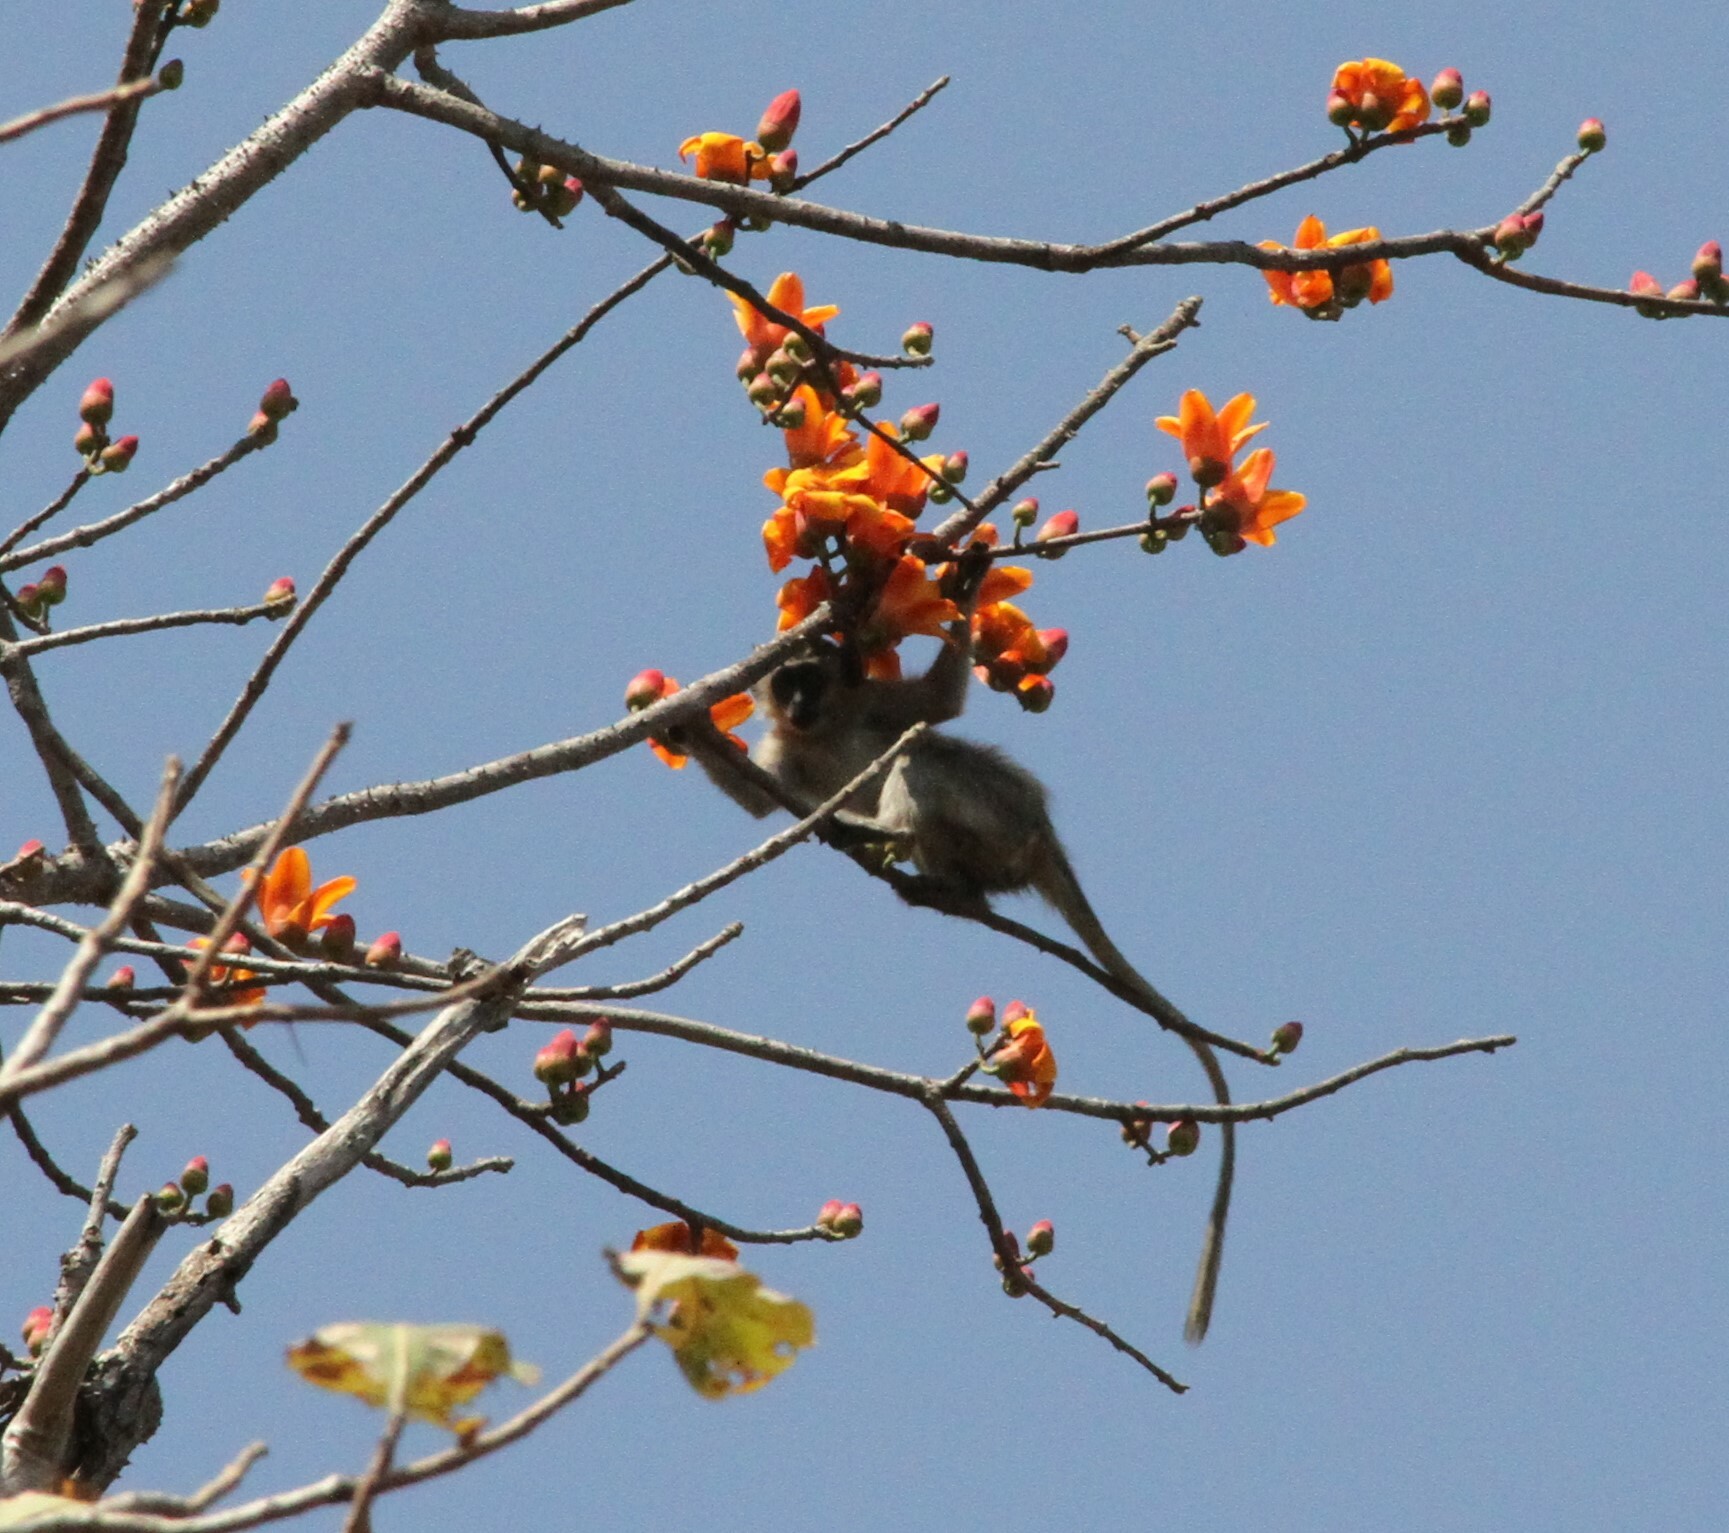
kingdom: Animalia
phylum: Chordata
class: Mammalia
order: Primates
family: Cercopithecidae
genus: Chlorocebus
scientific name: Chlorocebus sabaeus
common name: Green monkey
